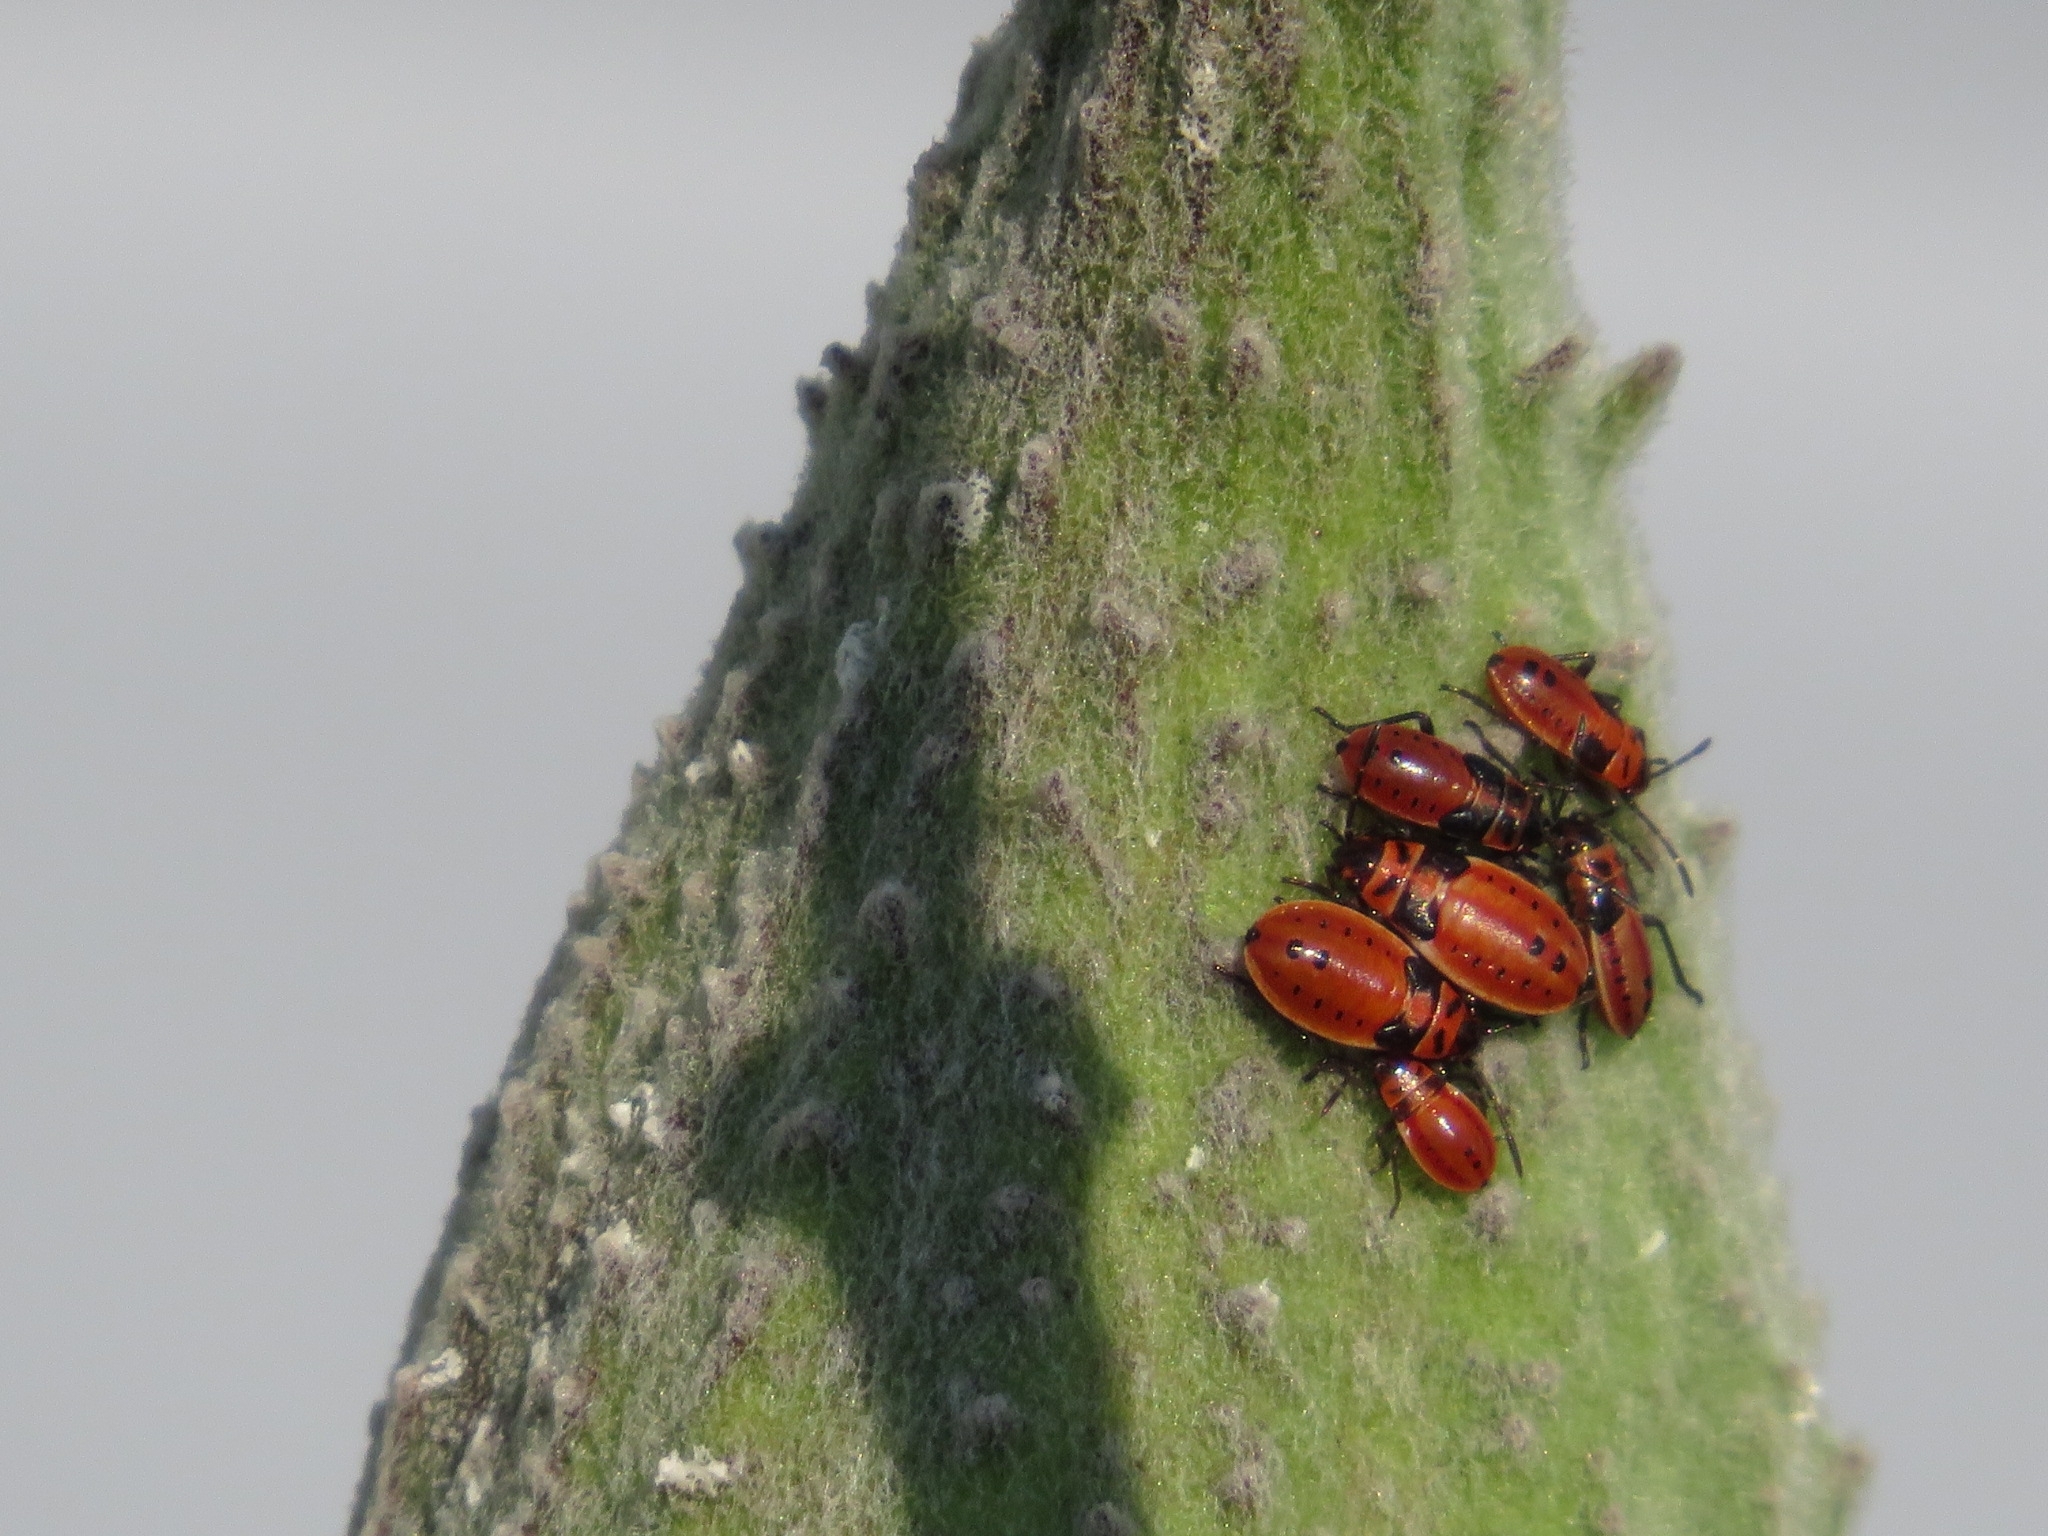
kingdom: Animalia
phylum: Arthropoda
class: Insecta
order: Hemiptera
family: Lygaeidae
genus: Lygaeus
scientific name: Lygaeus kalmii
